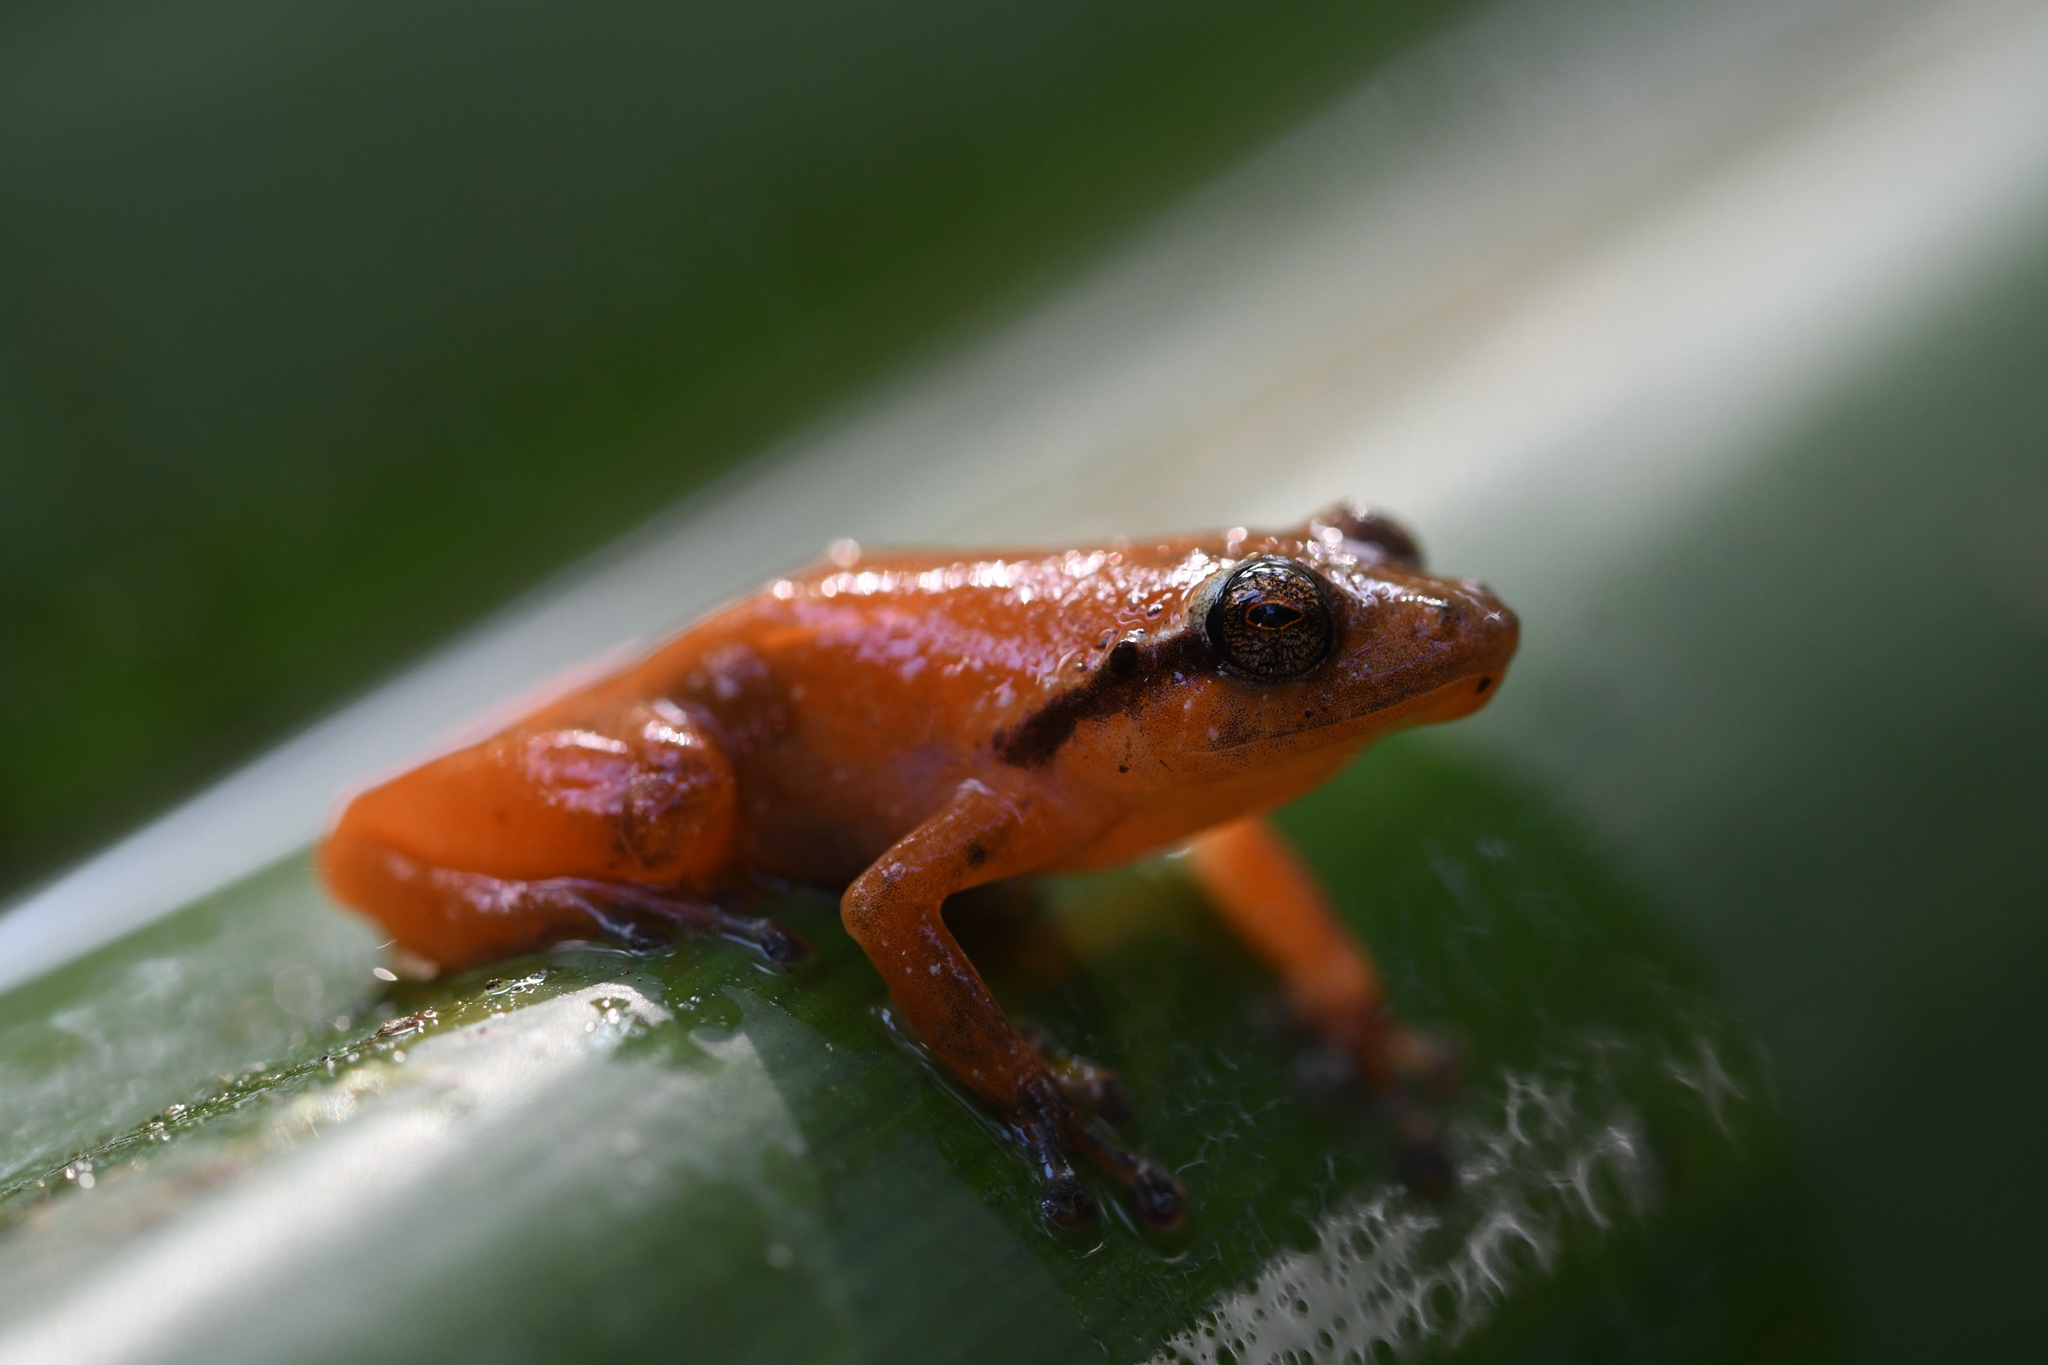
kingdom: Animalia
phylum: Chordata
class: Amphibia
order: Anura
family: Microhylidae
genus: Cophyla
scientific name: Cophyla tuberifera
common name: Ambatoharanana giant treefrog
